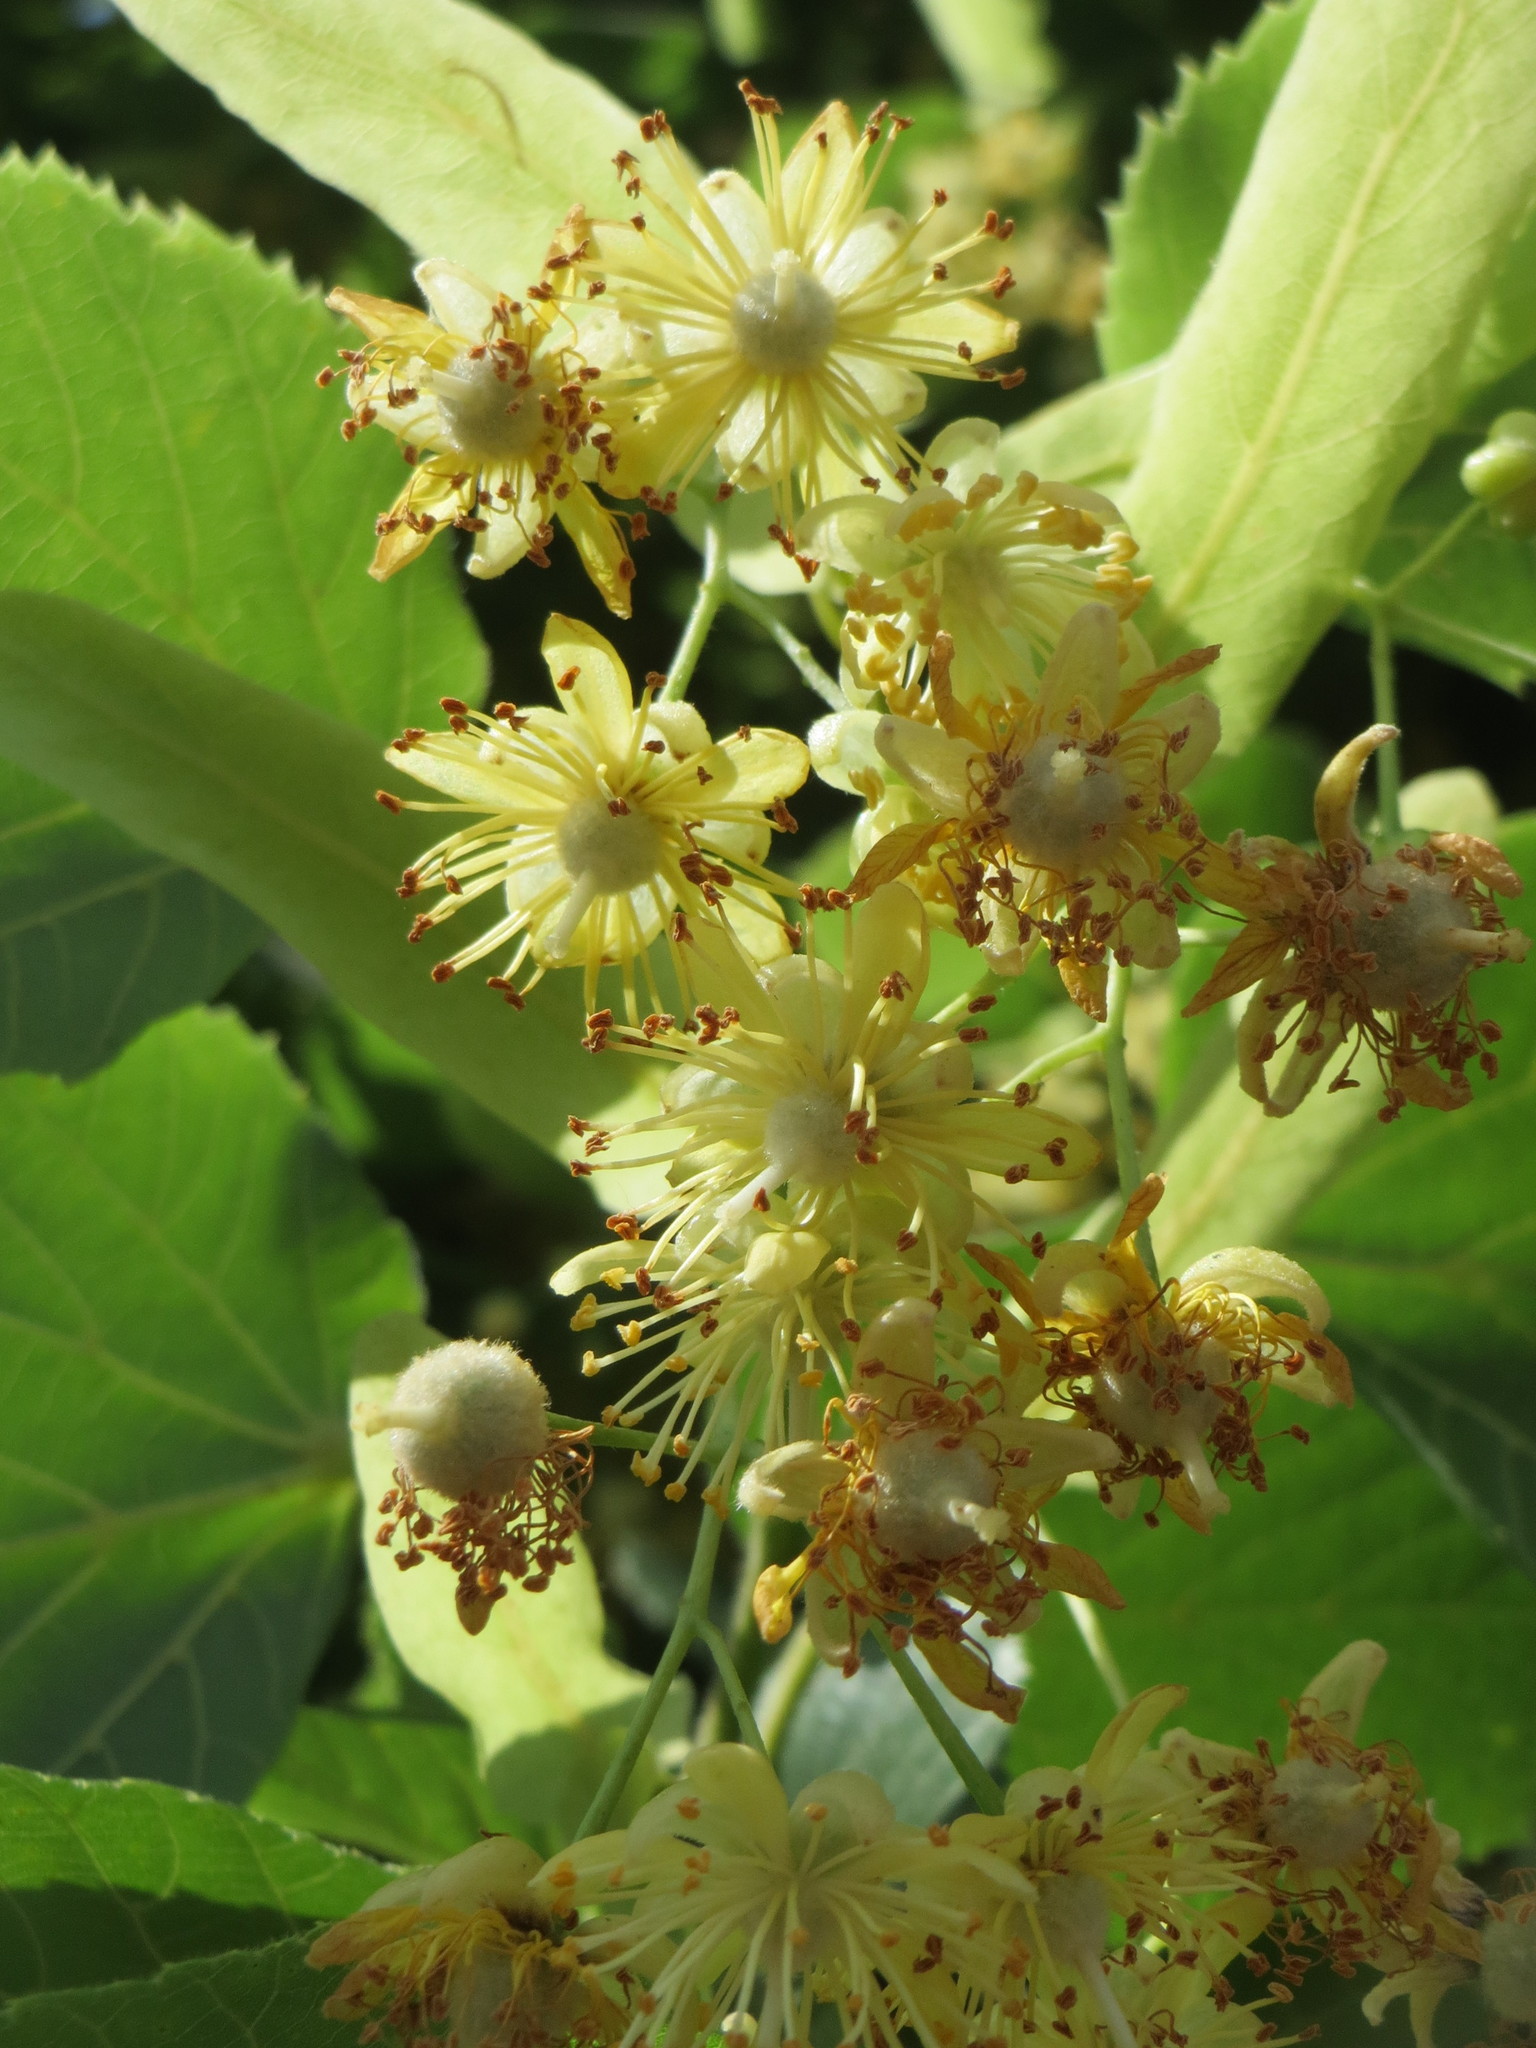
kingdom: Plantae
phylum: Tracheophyta
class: Magnoliopsida
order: Malvales
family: Malvaceae
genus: Tilia
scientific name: Tilia cordata
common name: Small-leaved lime
